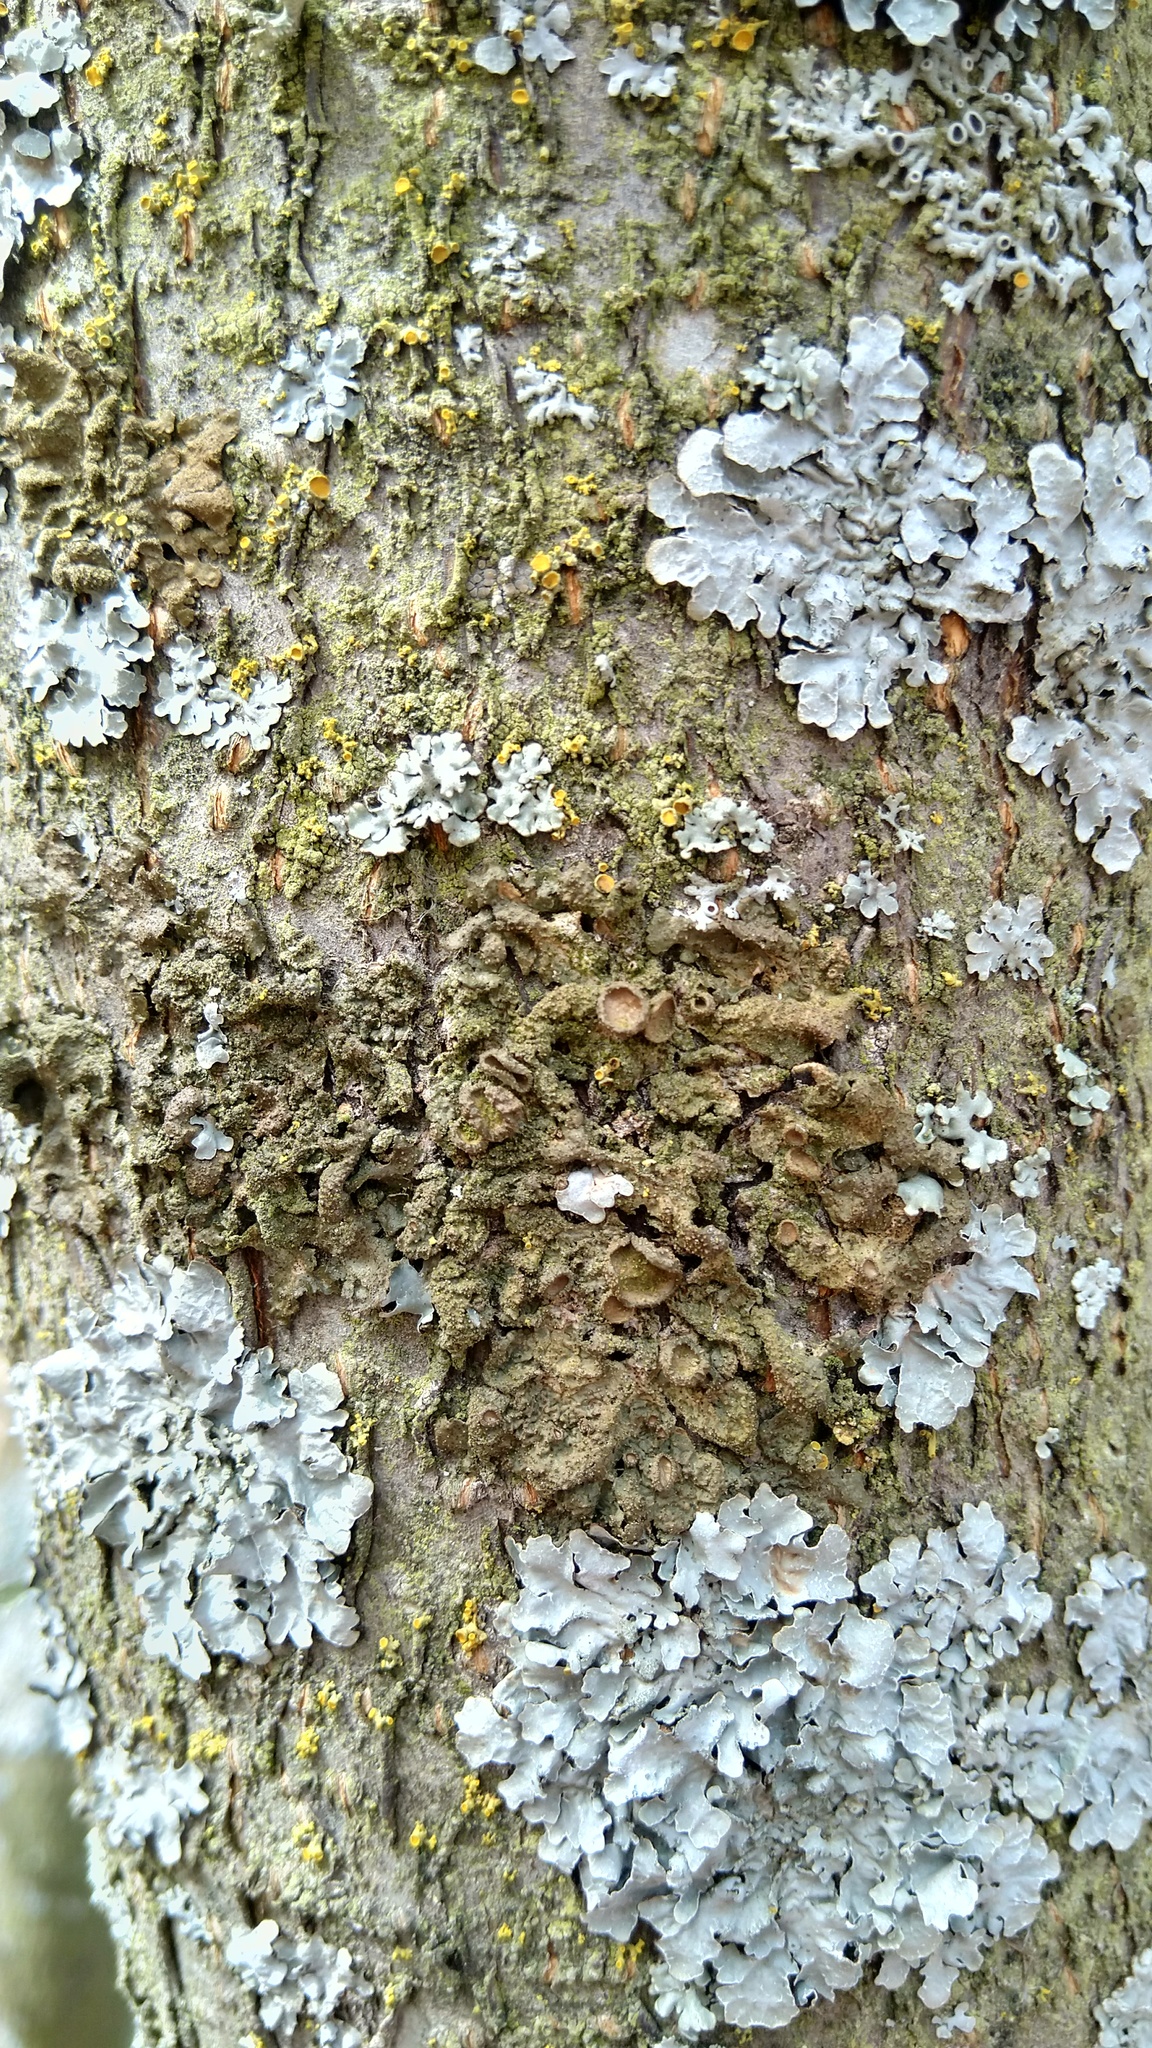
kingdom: Fungi
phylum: Ascomycota
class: Lecanoromycetes
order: Lecanorales
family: Parmeliaceae
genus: Melanohalea
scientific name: Melanohalea exasperata
